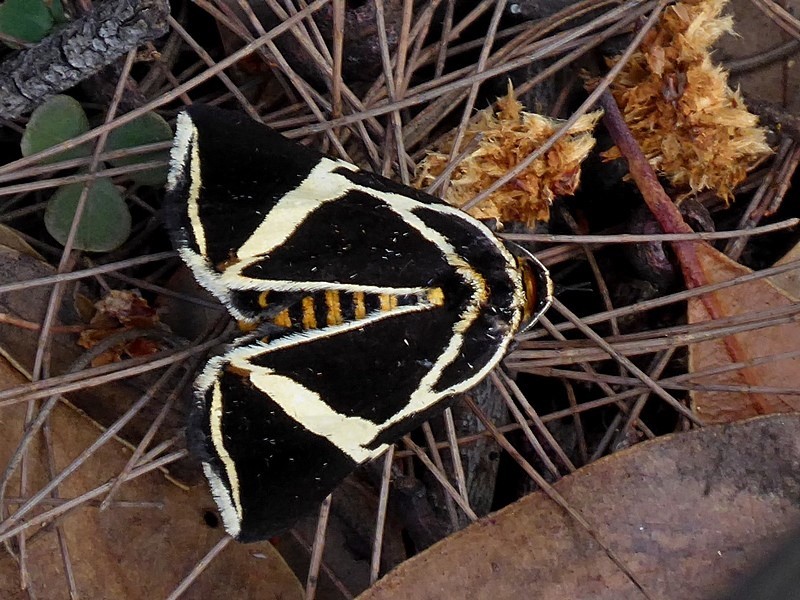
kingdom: Animalia
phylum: Arthropoda
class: Insecta
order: Lepidoptera
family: Erebidae
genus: Fodina
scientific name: Fodina ostorius
